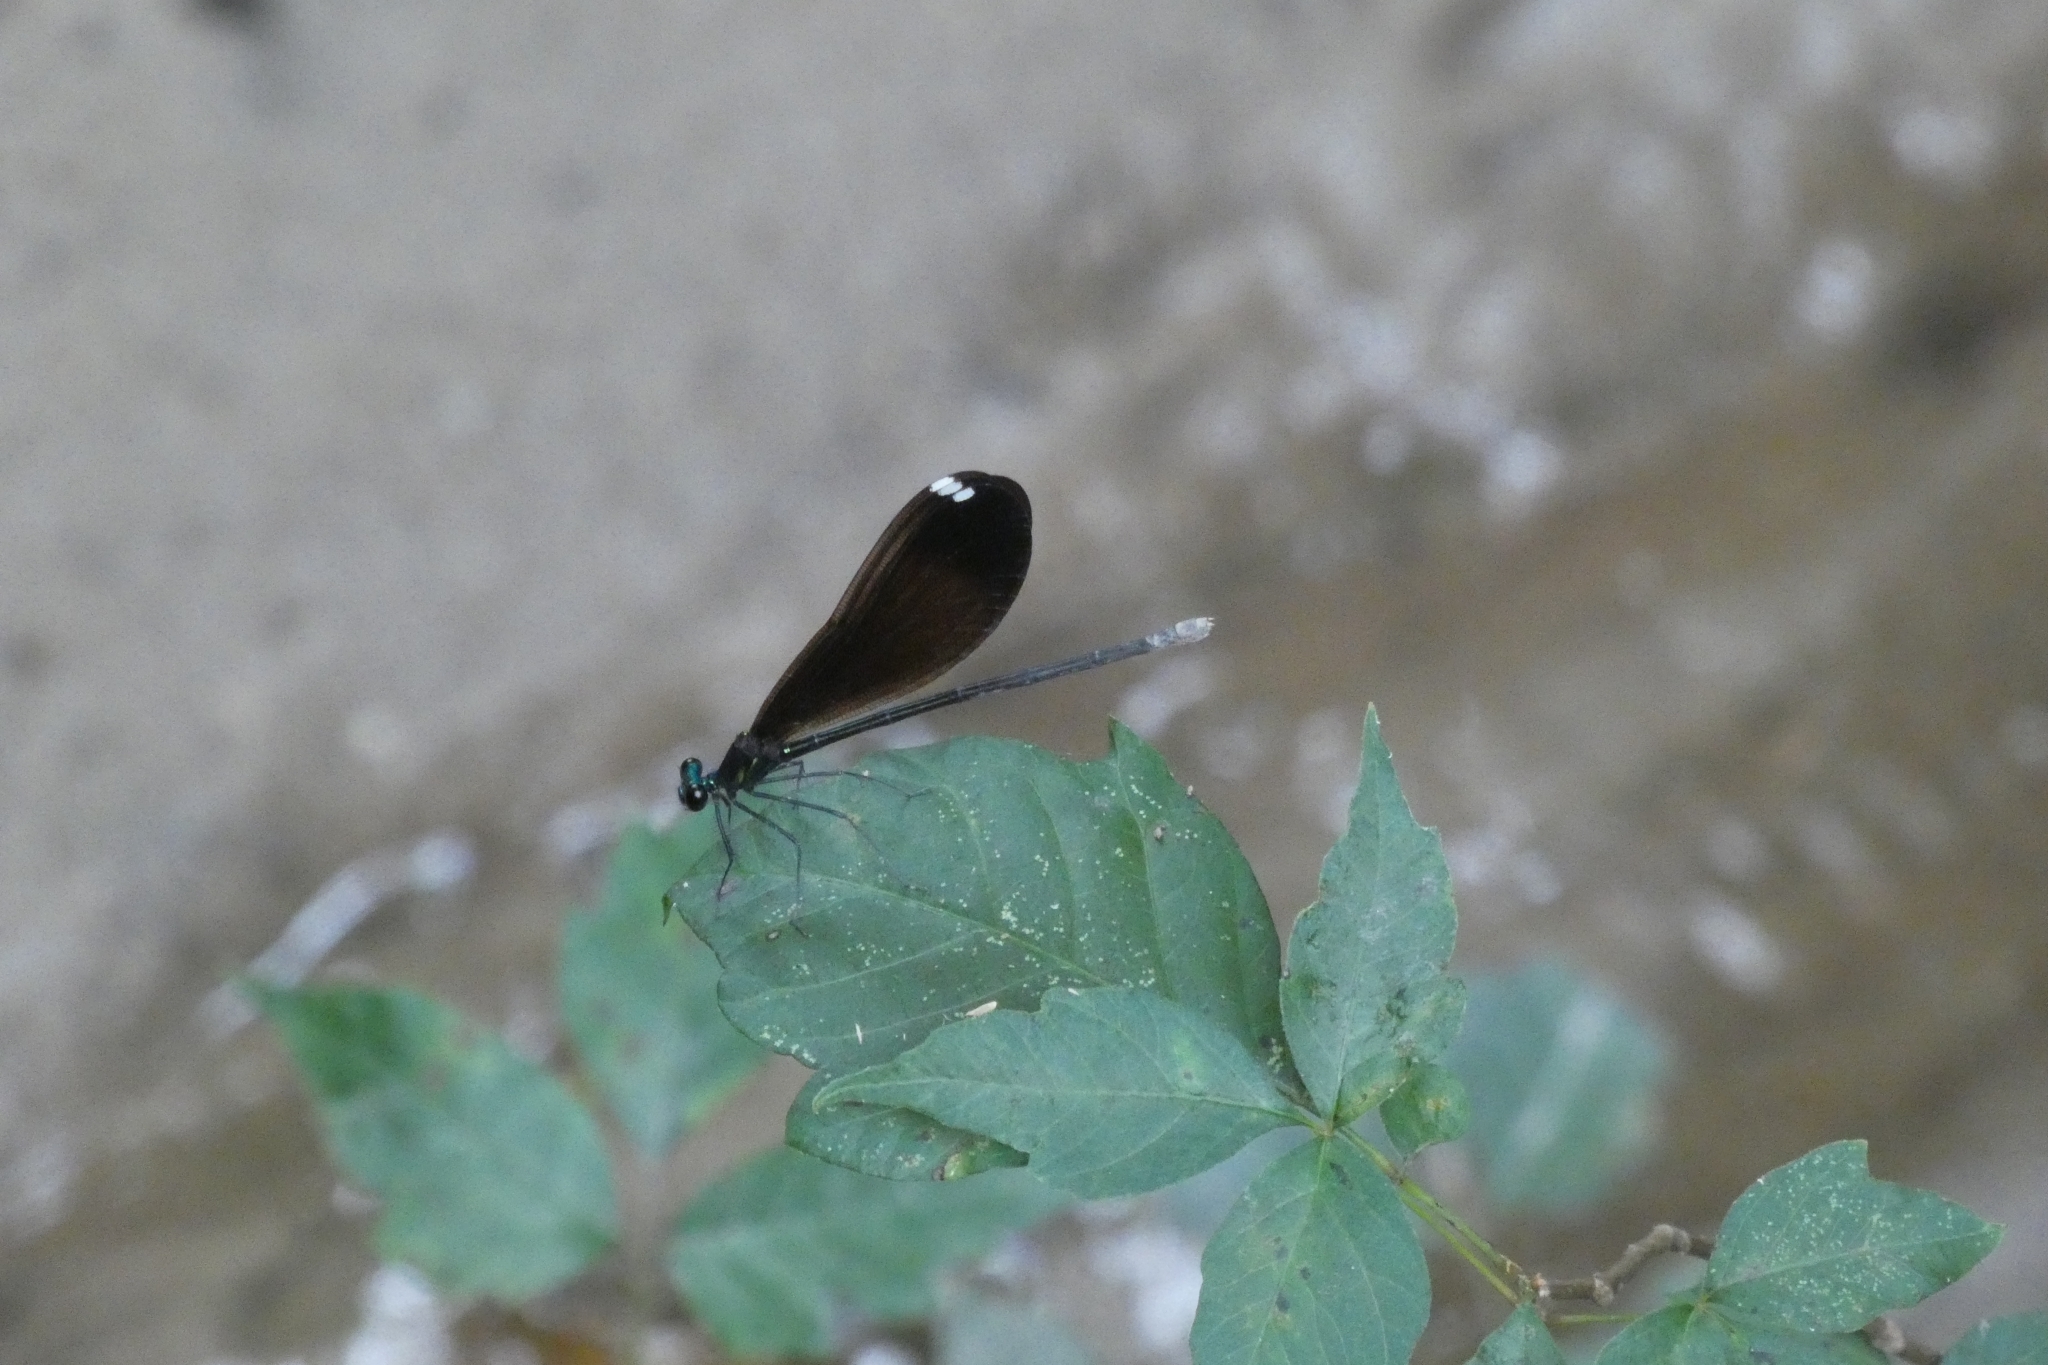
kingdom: Animalia
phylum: Arthropoda
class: Insecta
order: Odonata
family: Calopterygidae
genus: Calopteryx
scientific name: Calopteryx maculata
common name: Ebony jewelwing
